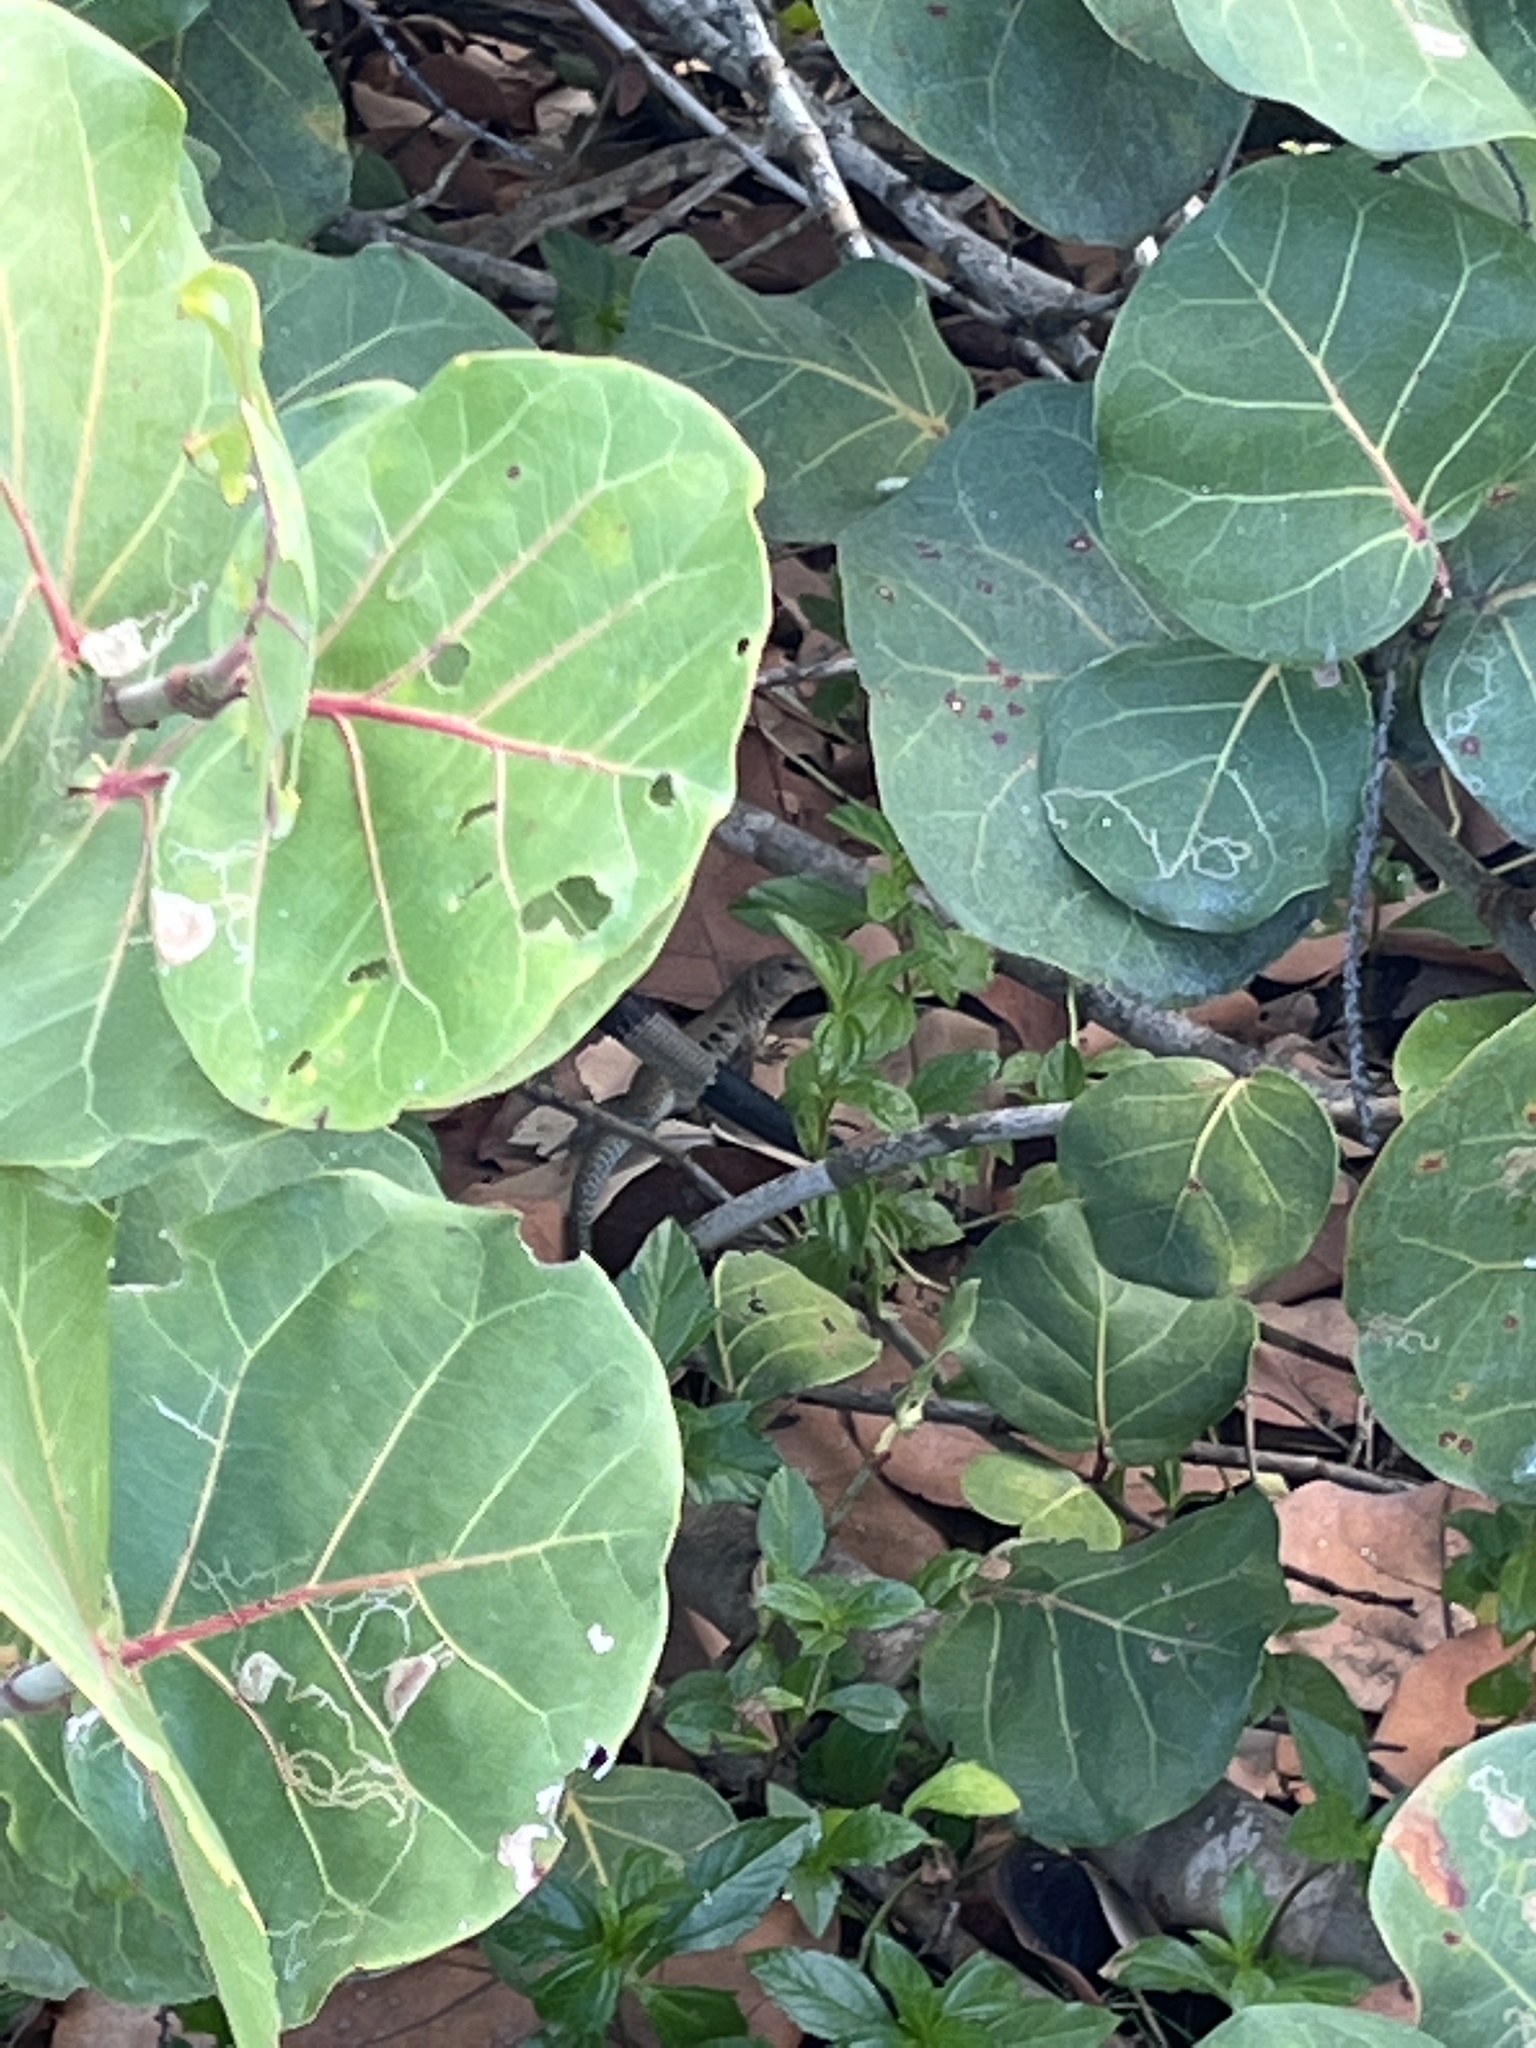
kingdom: Animalia
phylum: Chordata
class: Squamata
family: Teiidae
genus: Pholidoscelis
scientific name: Pholidoscelis exsul
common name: Common puerto rican ameiva
